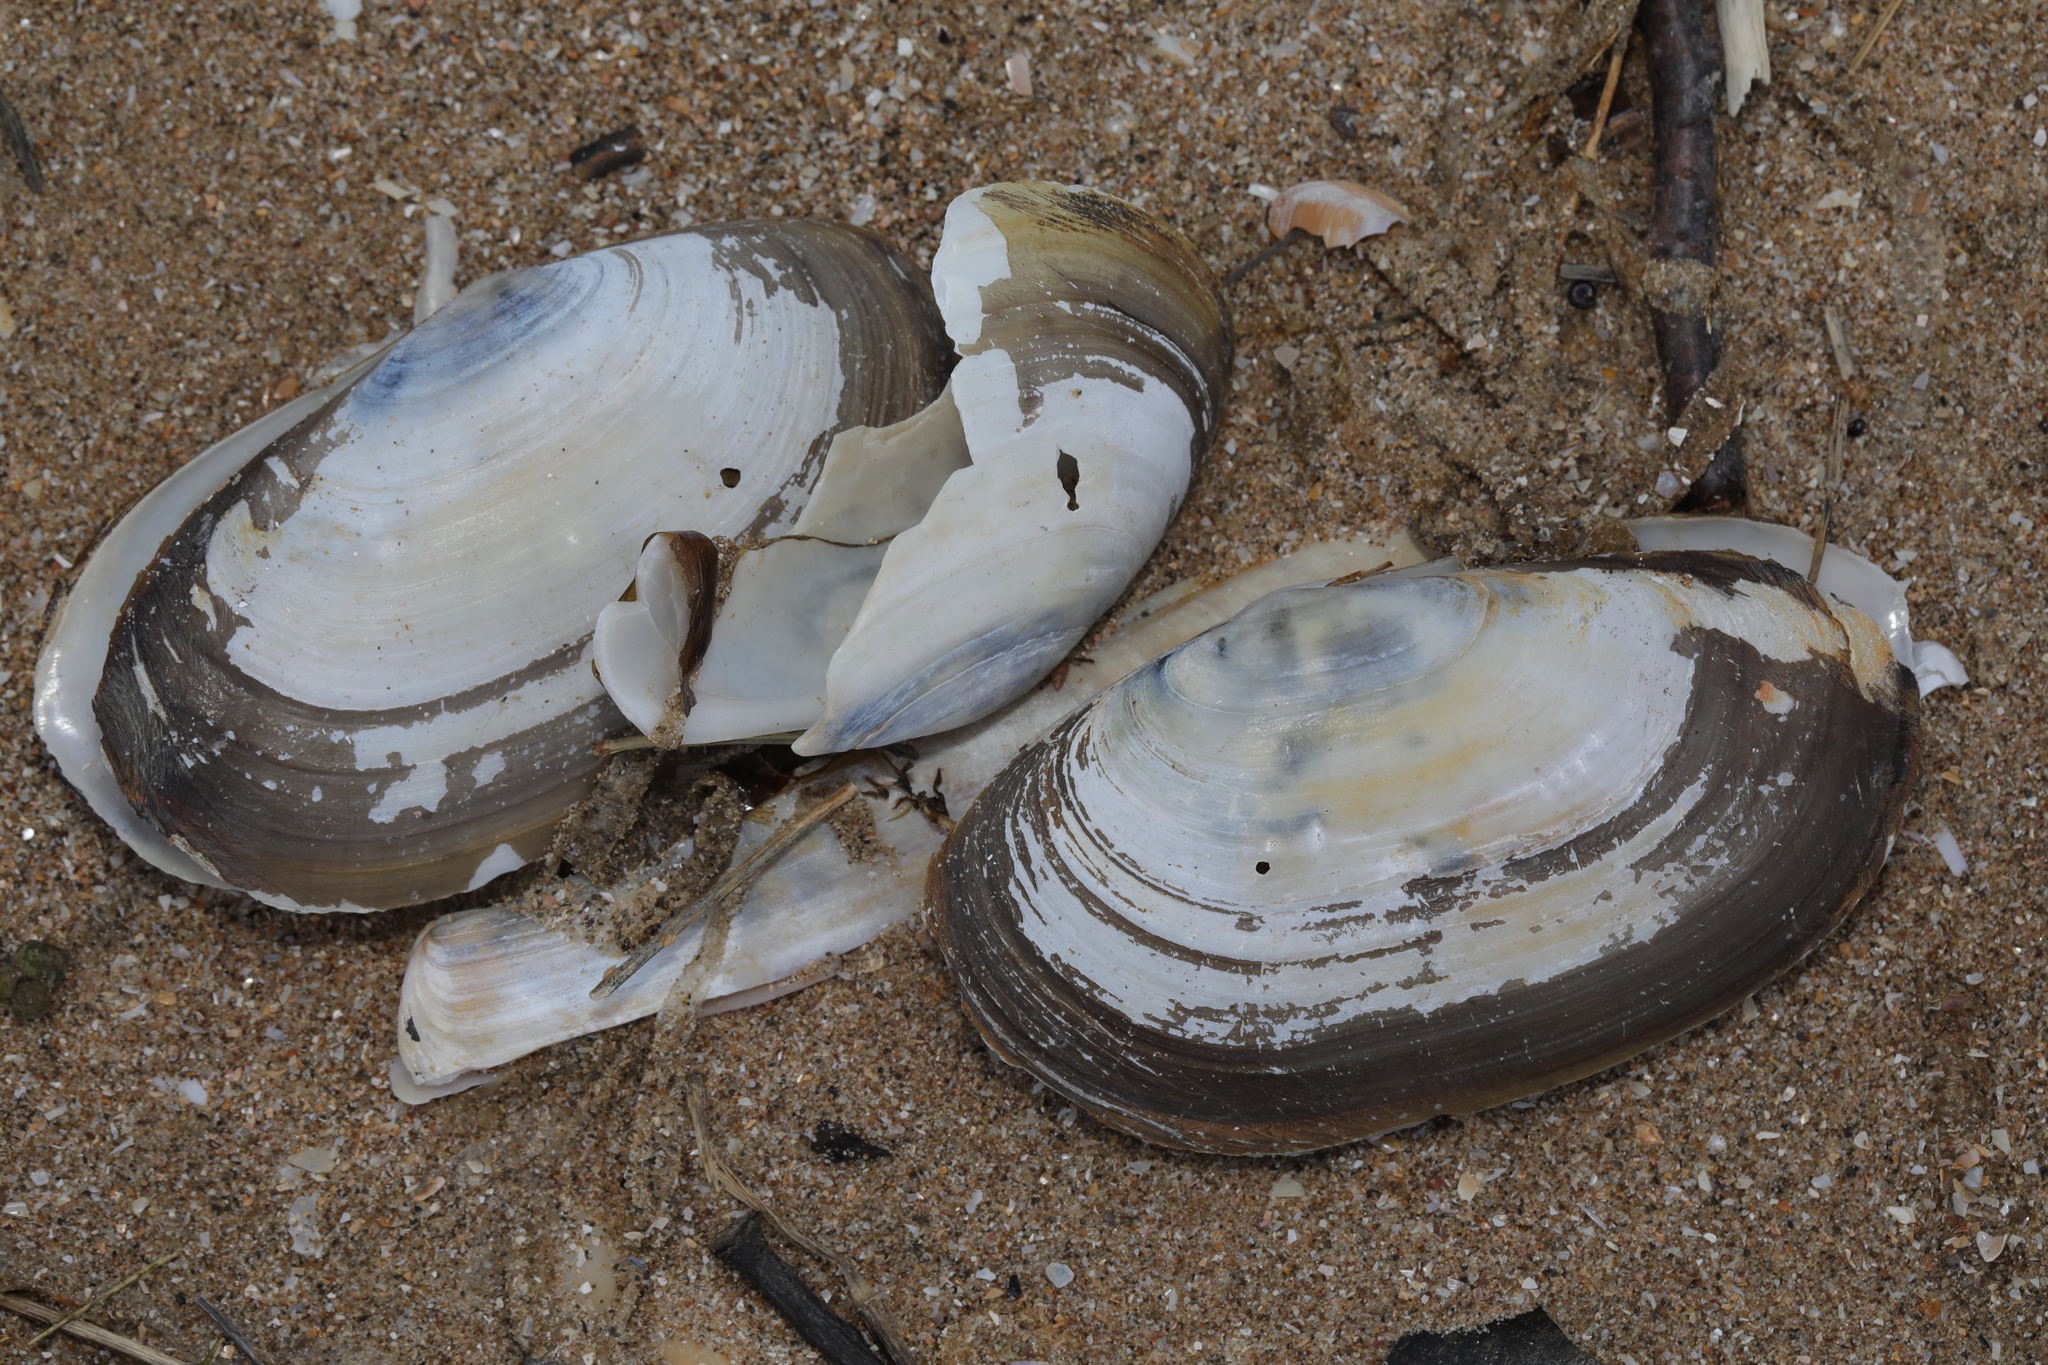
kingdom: Animalia
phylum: Mollusca
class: Bivalvia
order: Venerida
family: Mactridae
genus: Lutraria
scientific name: Lutraria lutraria
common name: Common otter shell
